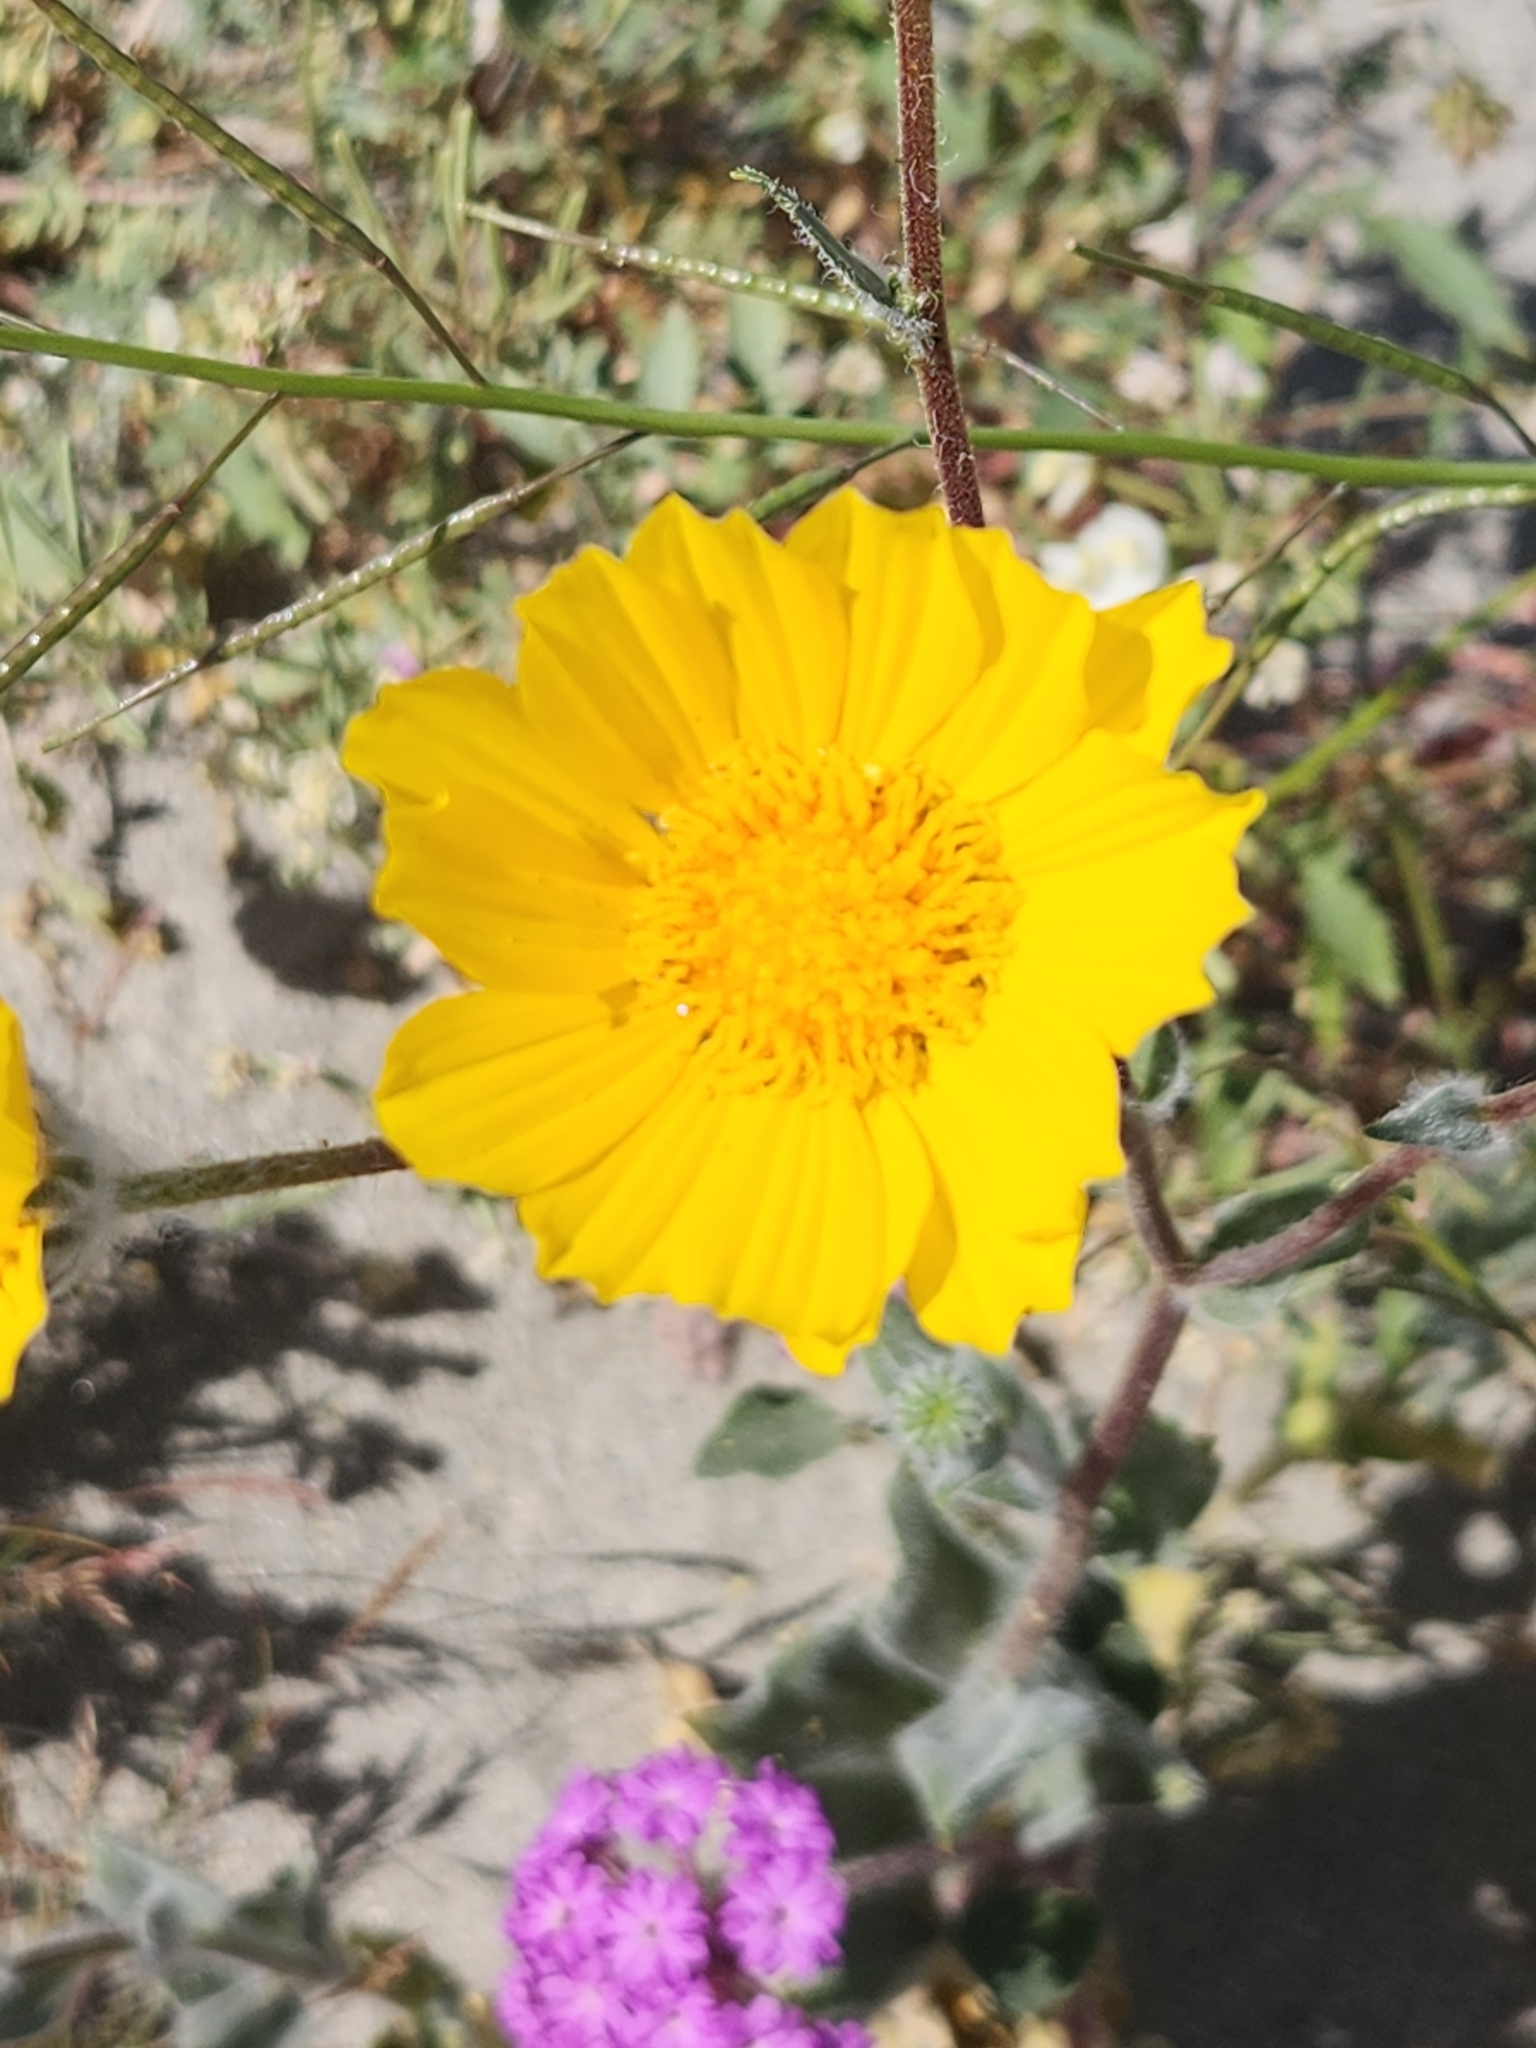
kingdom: Plantae
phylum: Tracheophyta
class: Magnoliopsida
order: Asterales
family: Asteraceae
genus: Geraea
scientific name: Geraea canescens
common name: Desert-gold
